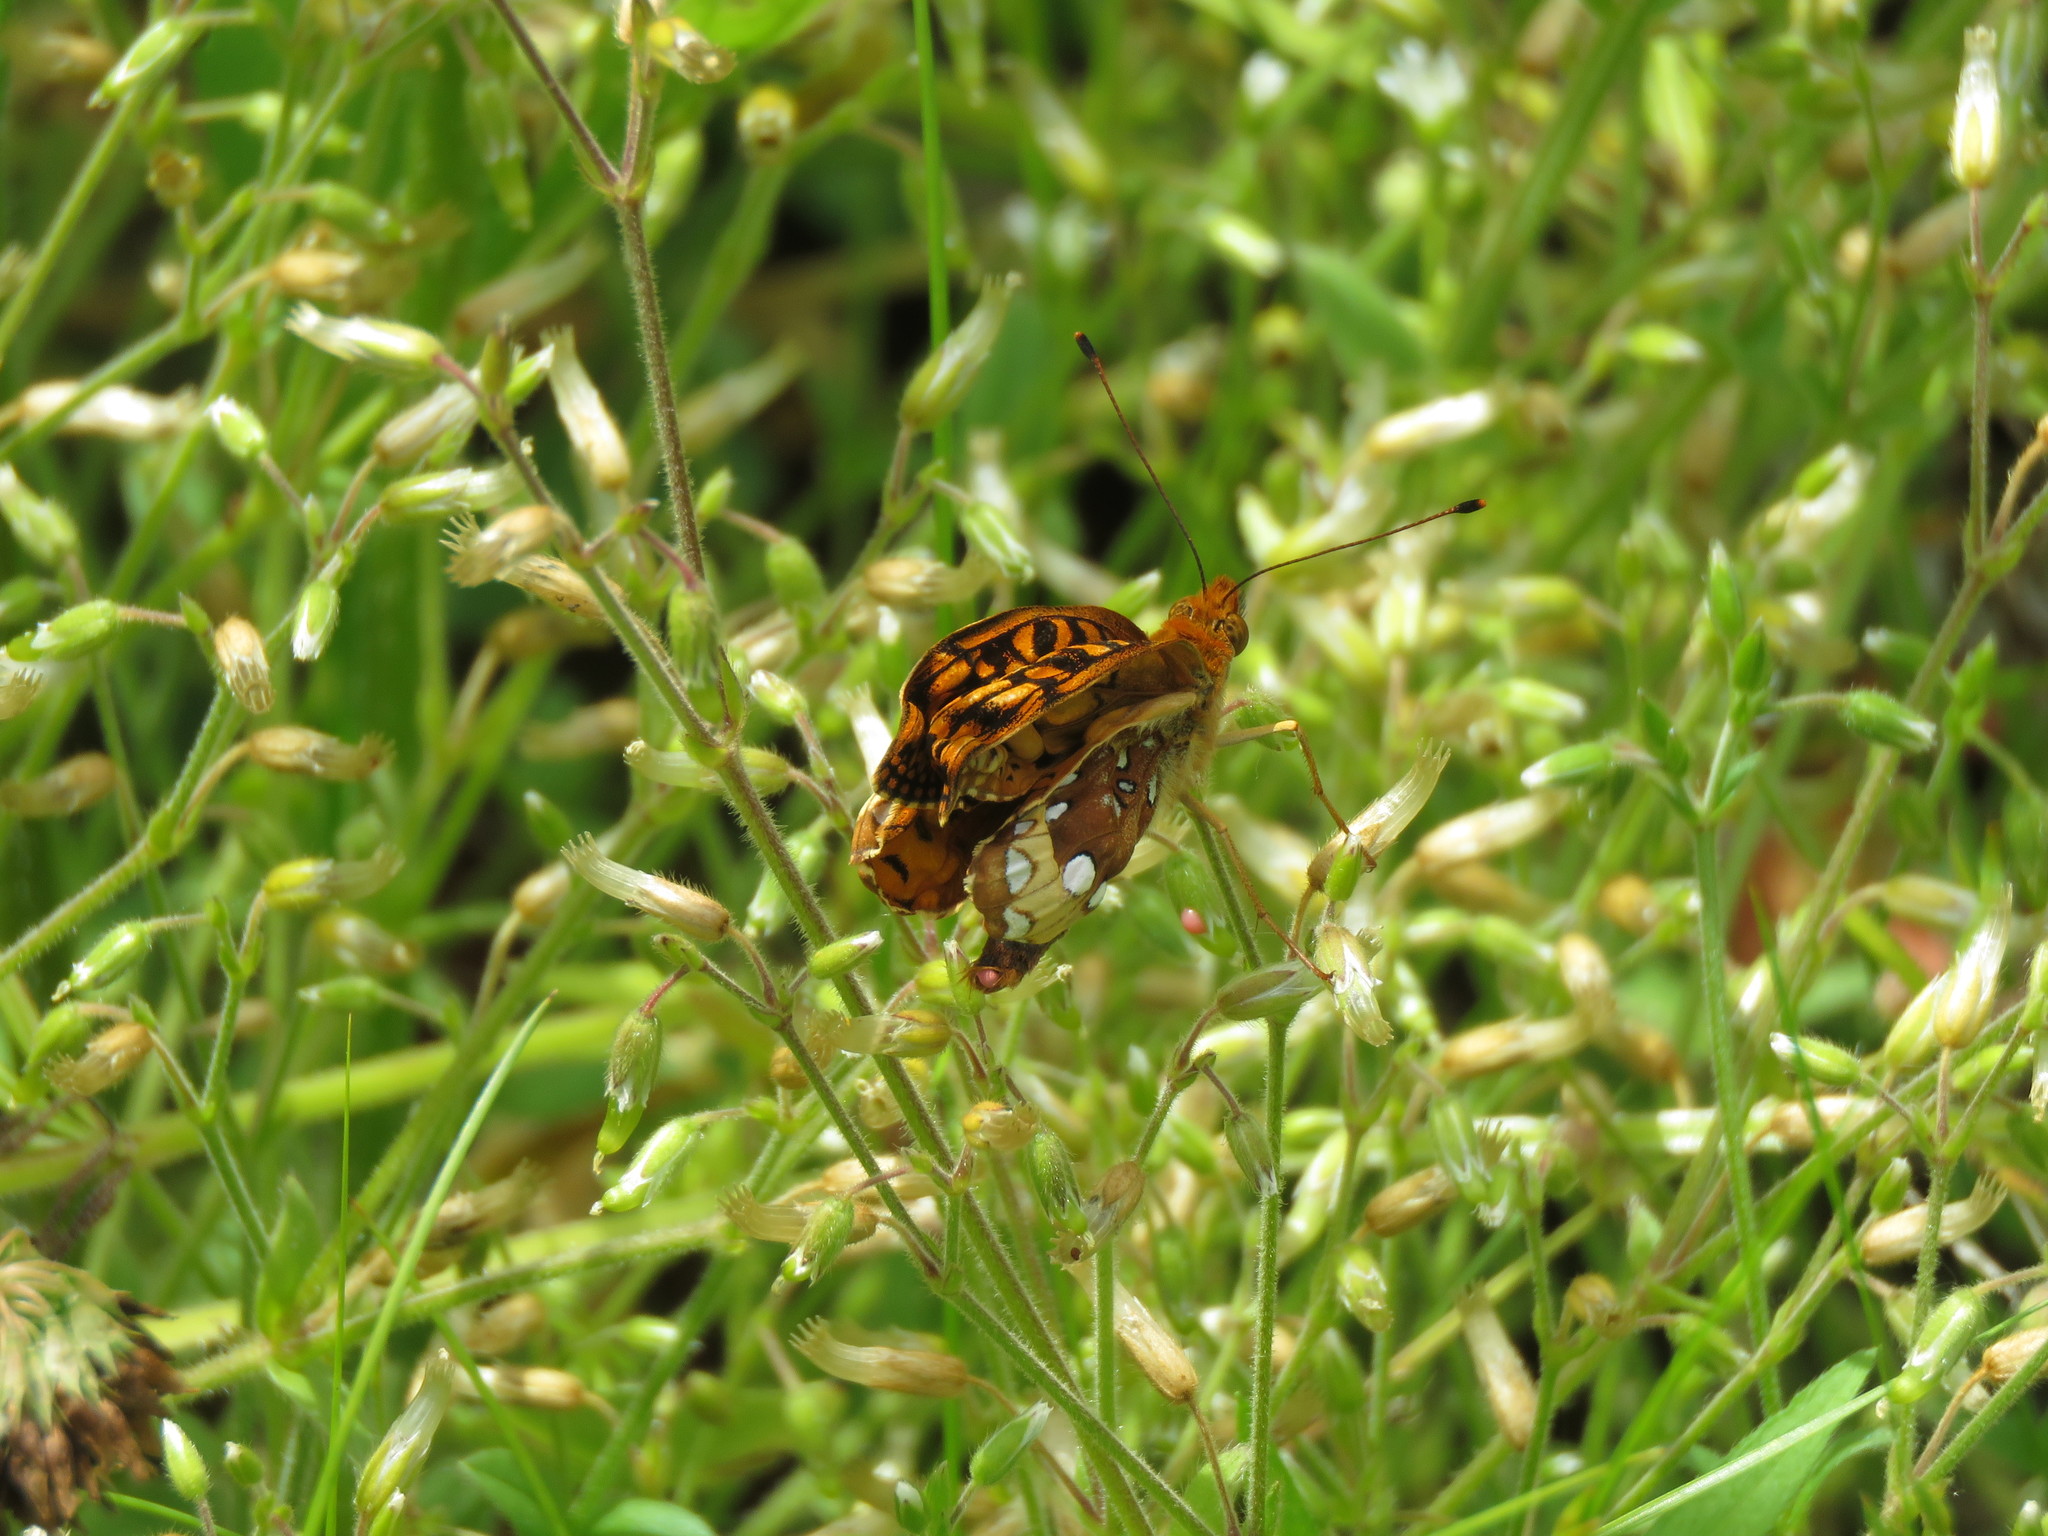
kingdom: Animalia
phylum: Arthropoda
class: Insecta
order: Lepidoptera
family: Nymphalidae
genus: Speyeria
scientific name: Speyeria cybele
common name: Great spangled fritillary
